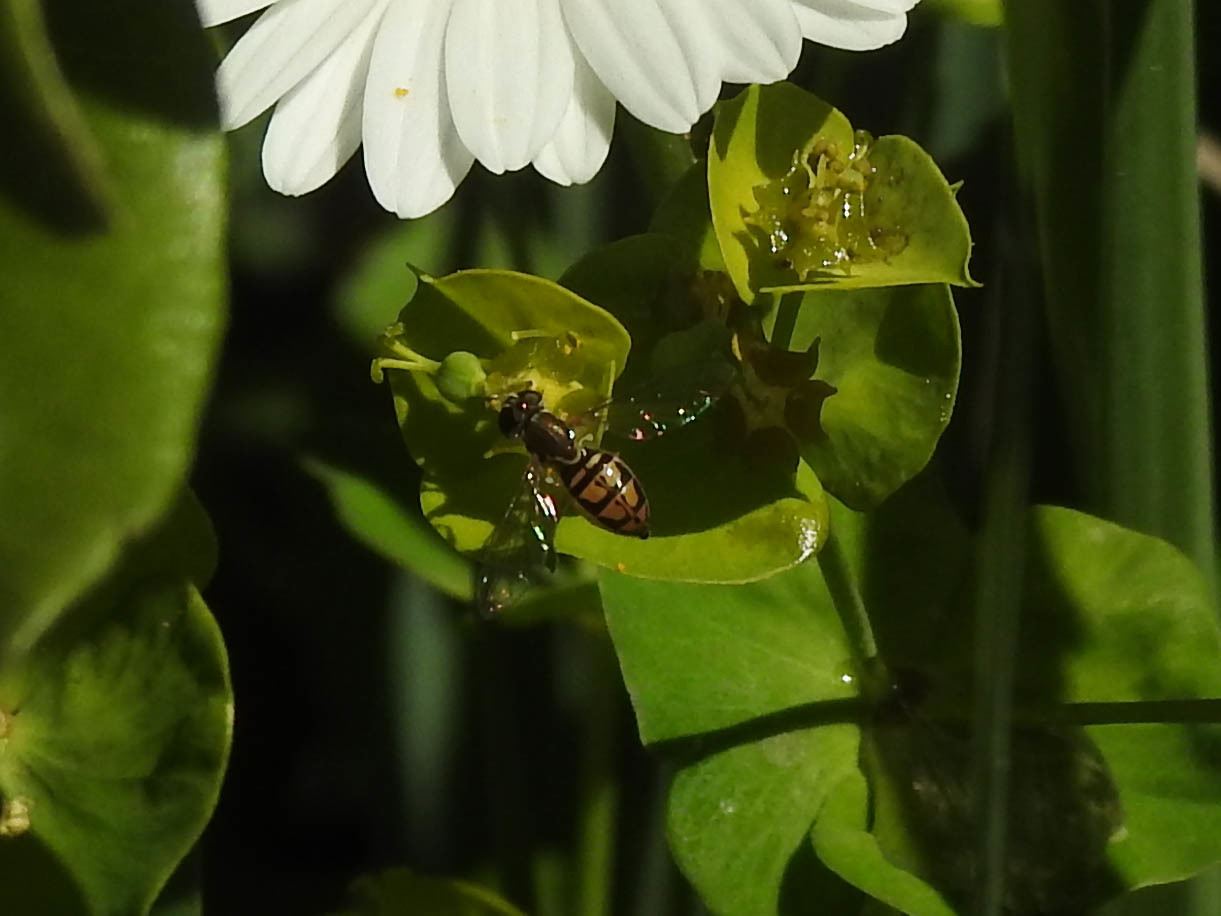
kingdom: Animalia
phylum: Arthropoda
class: Insecta
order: Diptera
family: Syrphidae
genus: Toxomerus
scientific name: Toxomerus marginatus
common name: Syrphid fly
